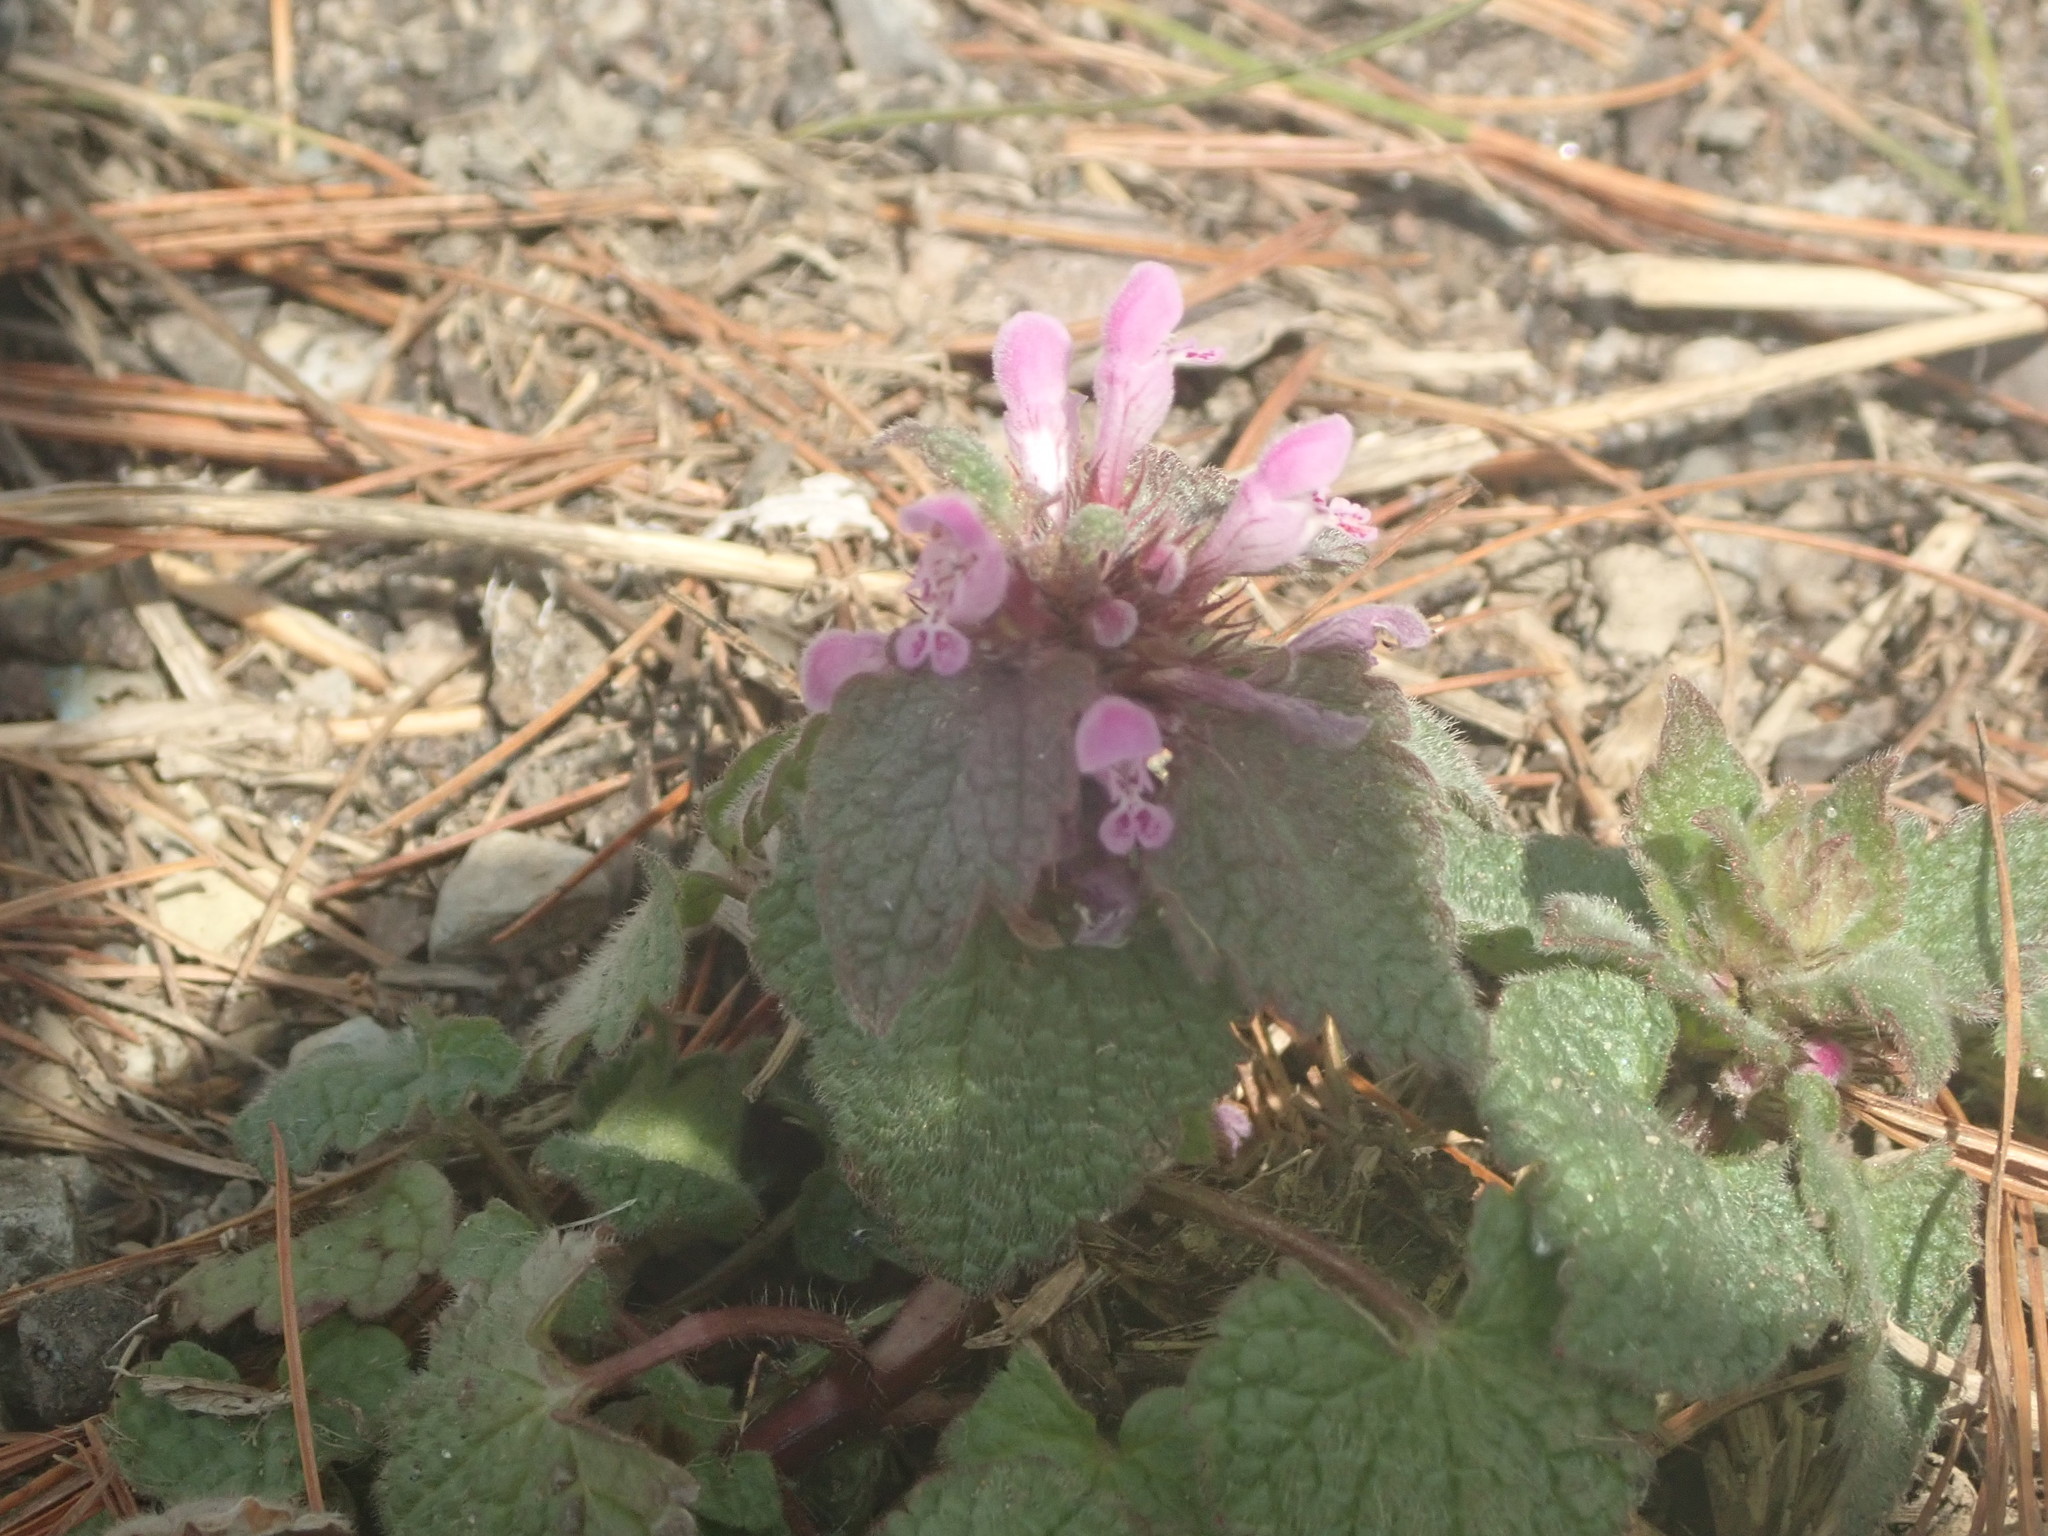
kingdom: Plantae
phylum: Tracheophyta
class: Magnoliopsida
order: Lamiales
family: Lamiaceae
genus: Lamium
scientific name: Lamium purpureum
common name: Red dead-nettle
